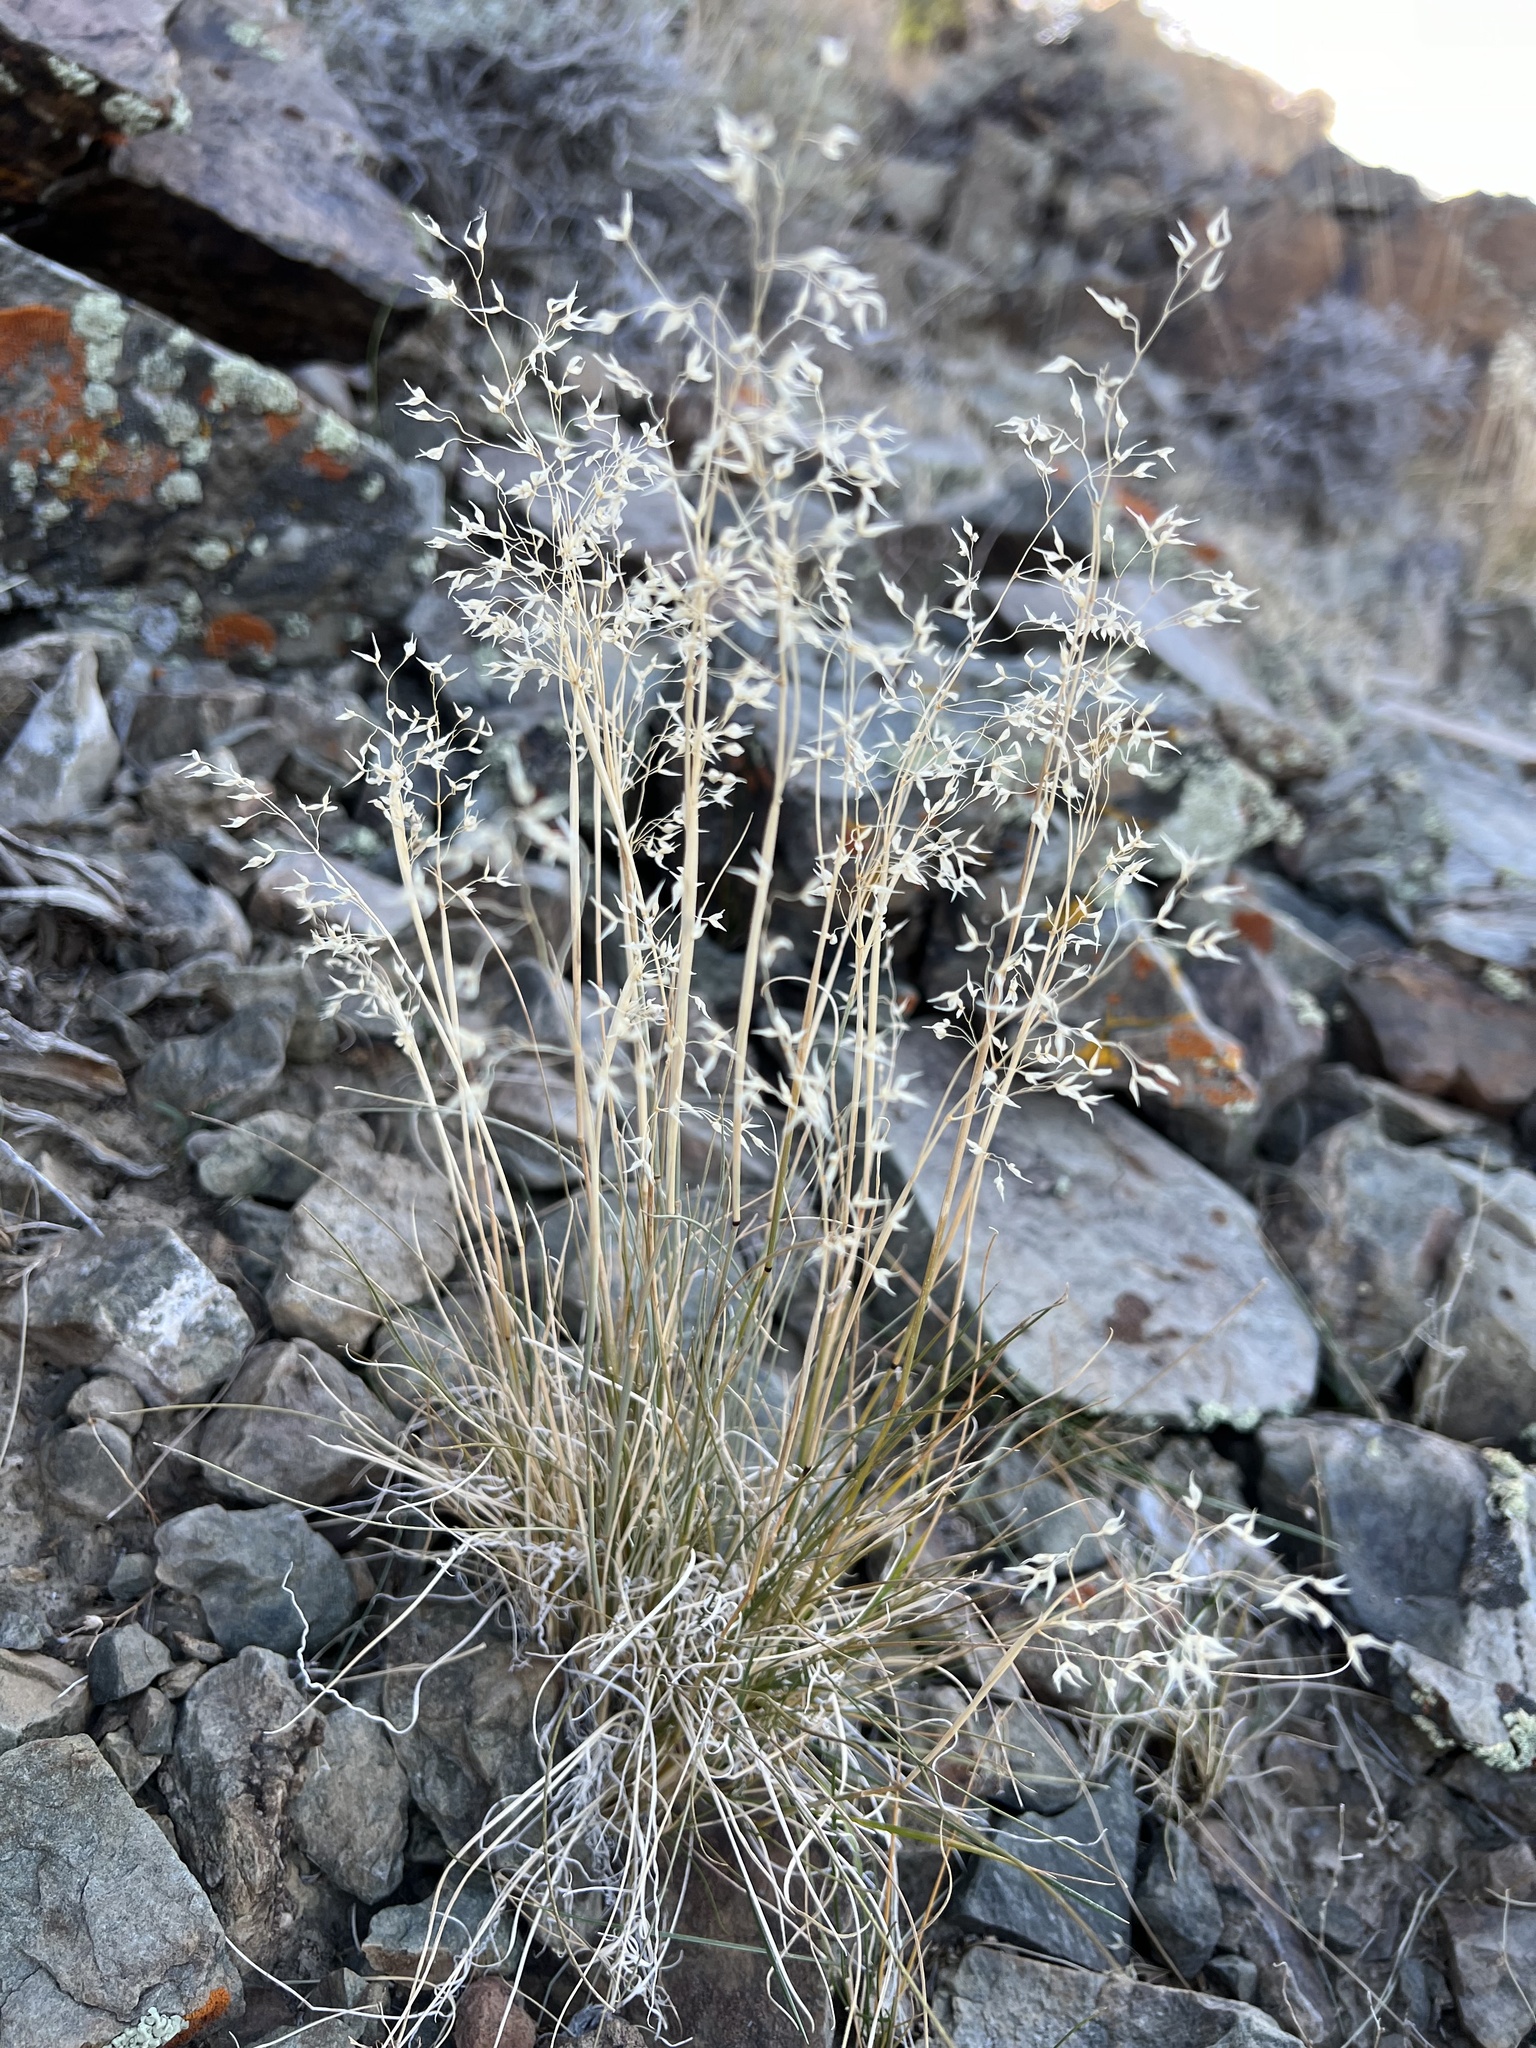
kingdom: Plantae
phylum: Tracheophyta
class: Liliopsida
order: Poales
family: Poaceae
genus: Eriocoma
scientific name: Eriocoma hymenoides
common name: Indian mountain ricegrass
